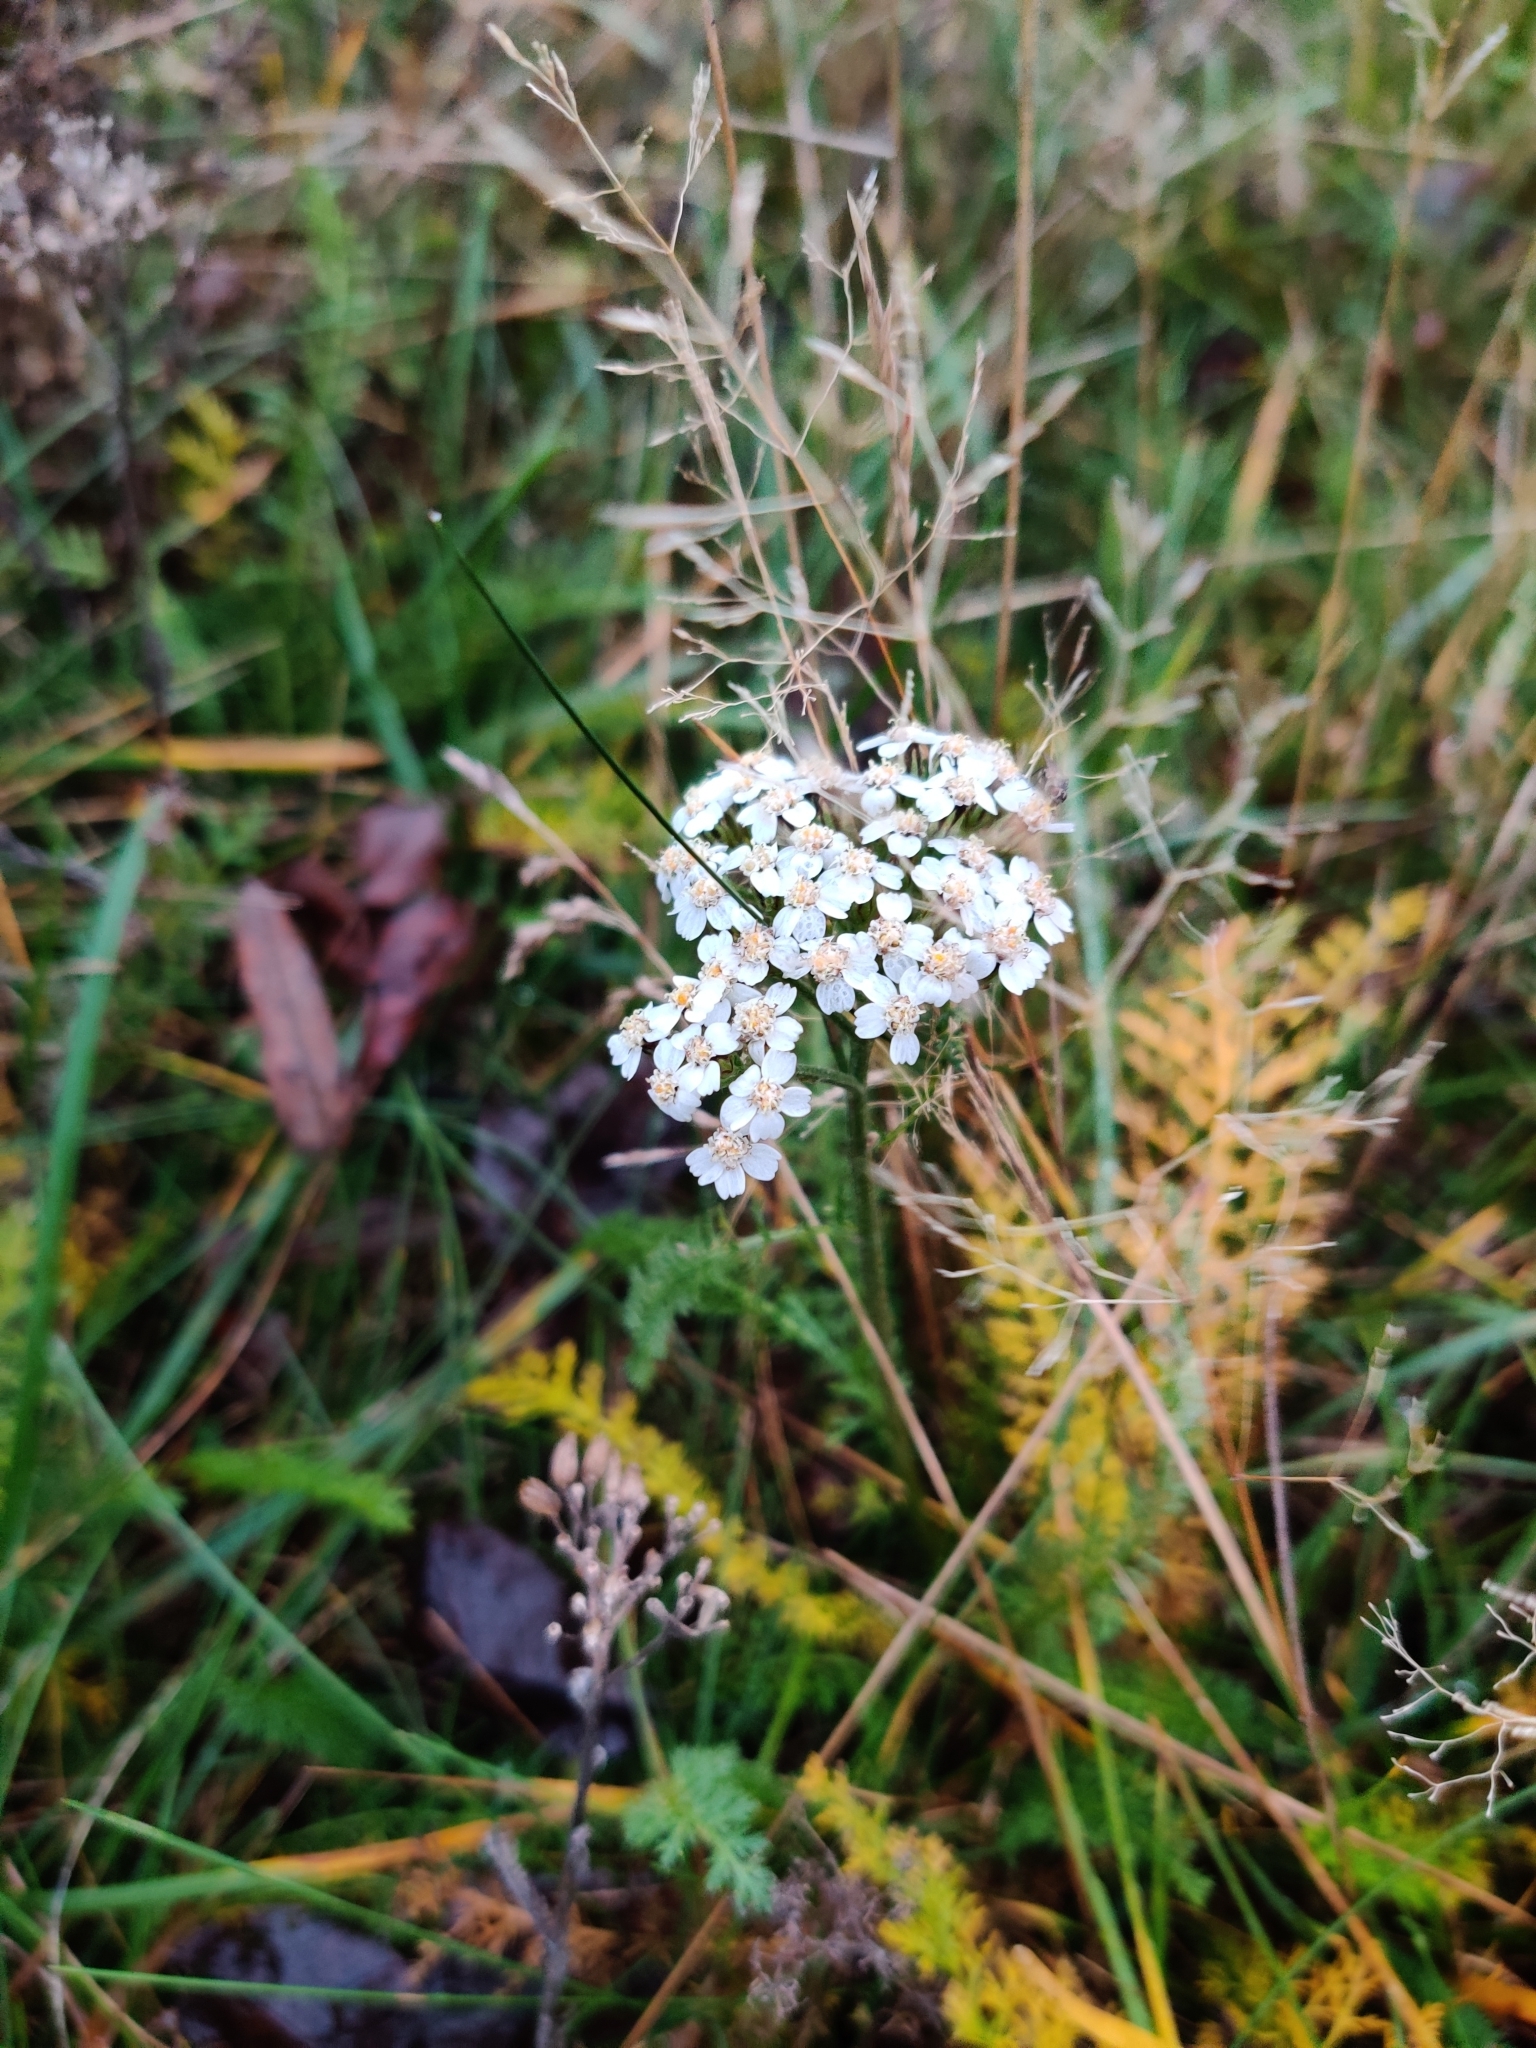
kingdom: Plantae
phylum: Tracheophyta
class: Magnoliopsida
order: Asterales
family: Asteraceae
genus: Achillea
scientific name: Achillea millefolium
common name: Yarrow
